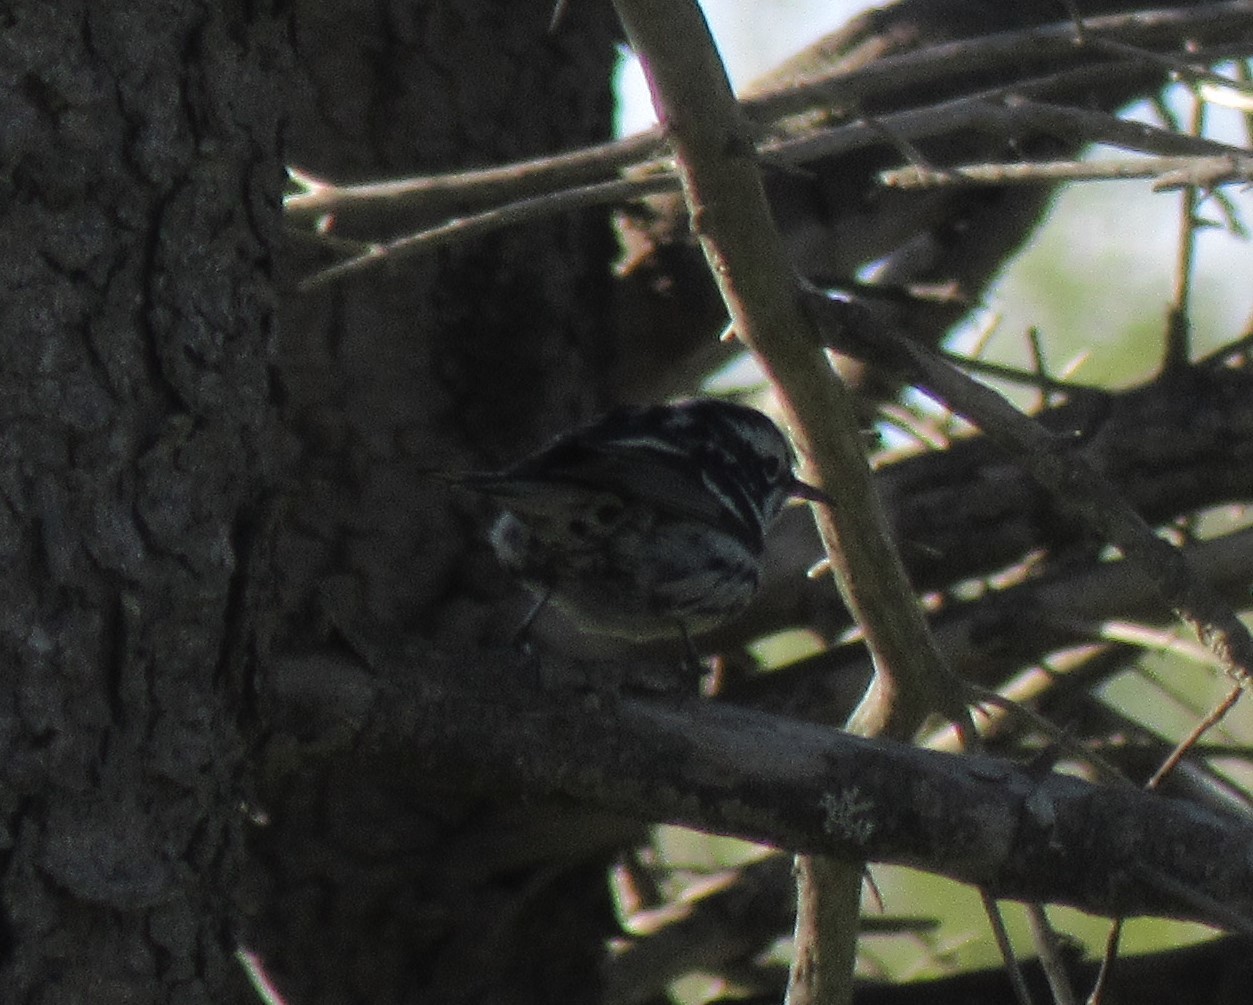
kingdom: Animalia
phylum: Chordata
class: Aves
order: Passeriformes
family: Parulidae
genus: Mniotilta
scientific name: Mniotilta varia
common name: Black-and-white warbler
